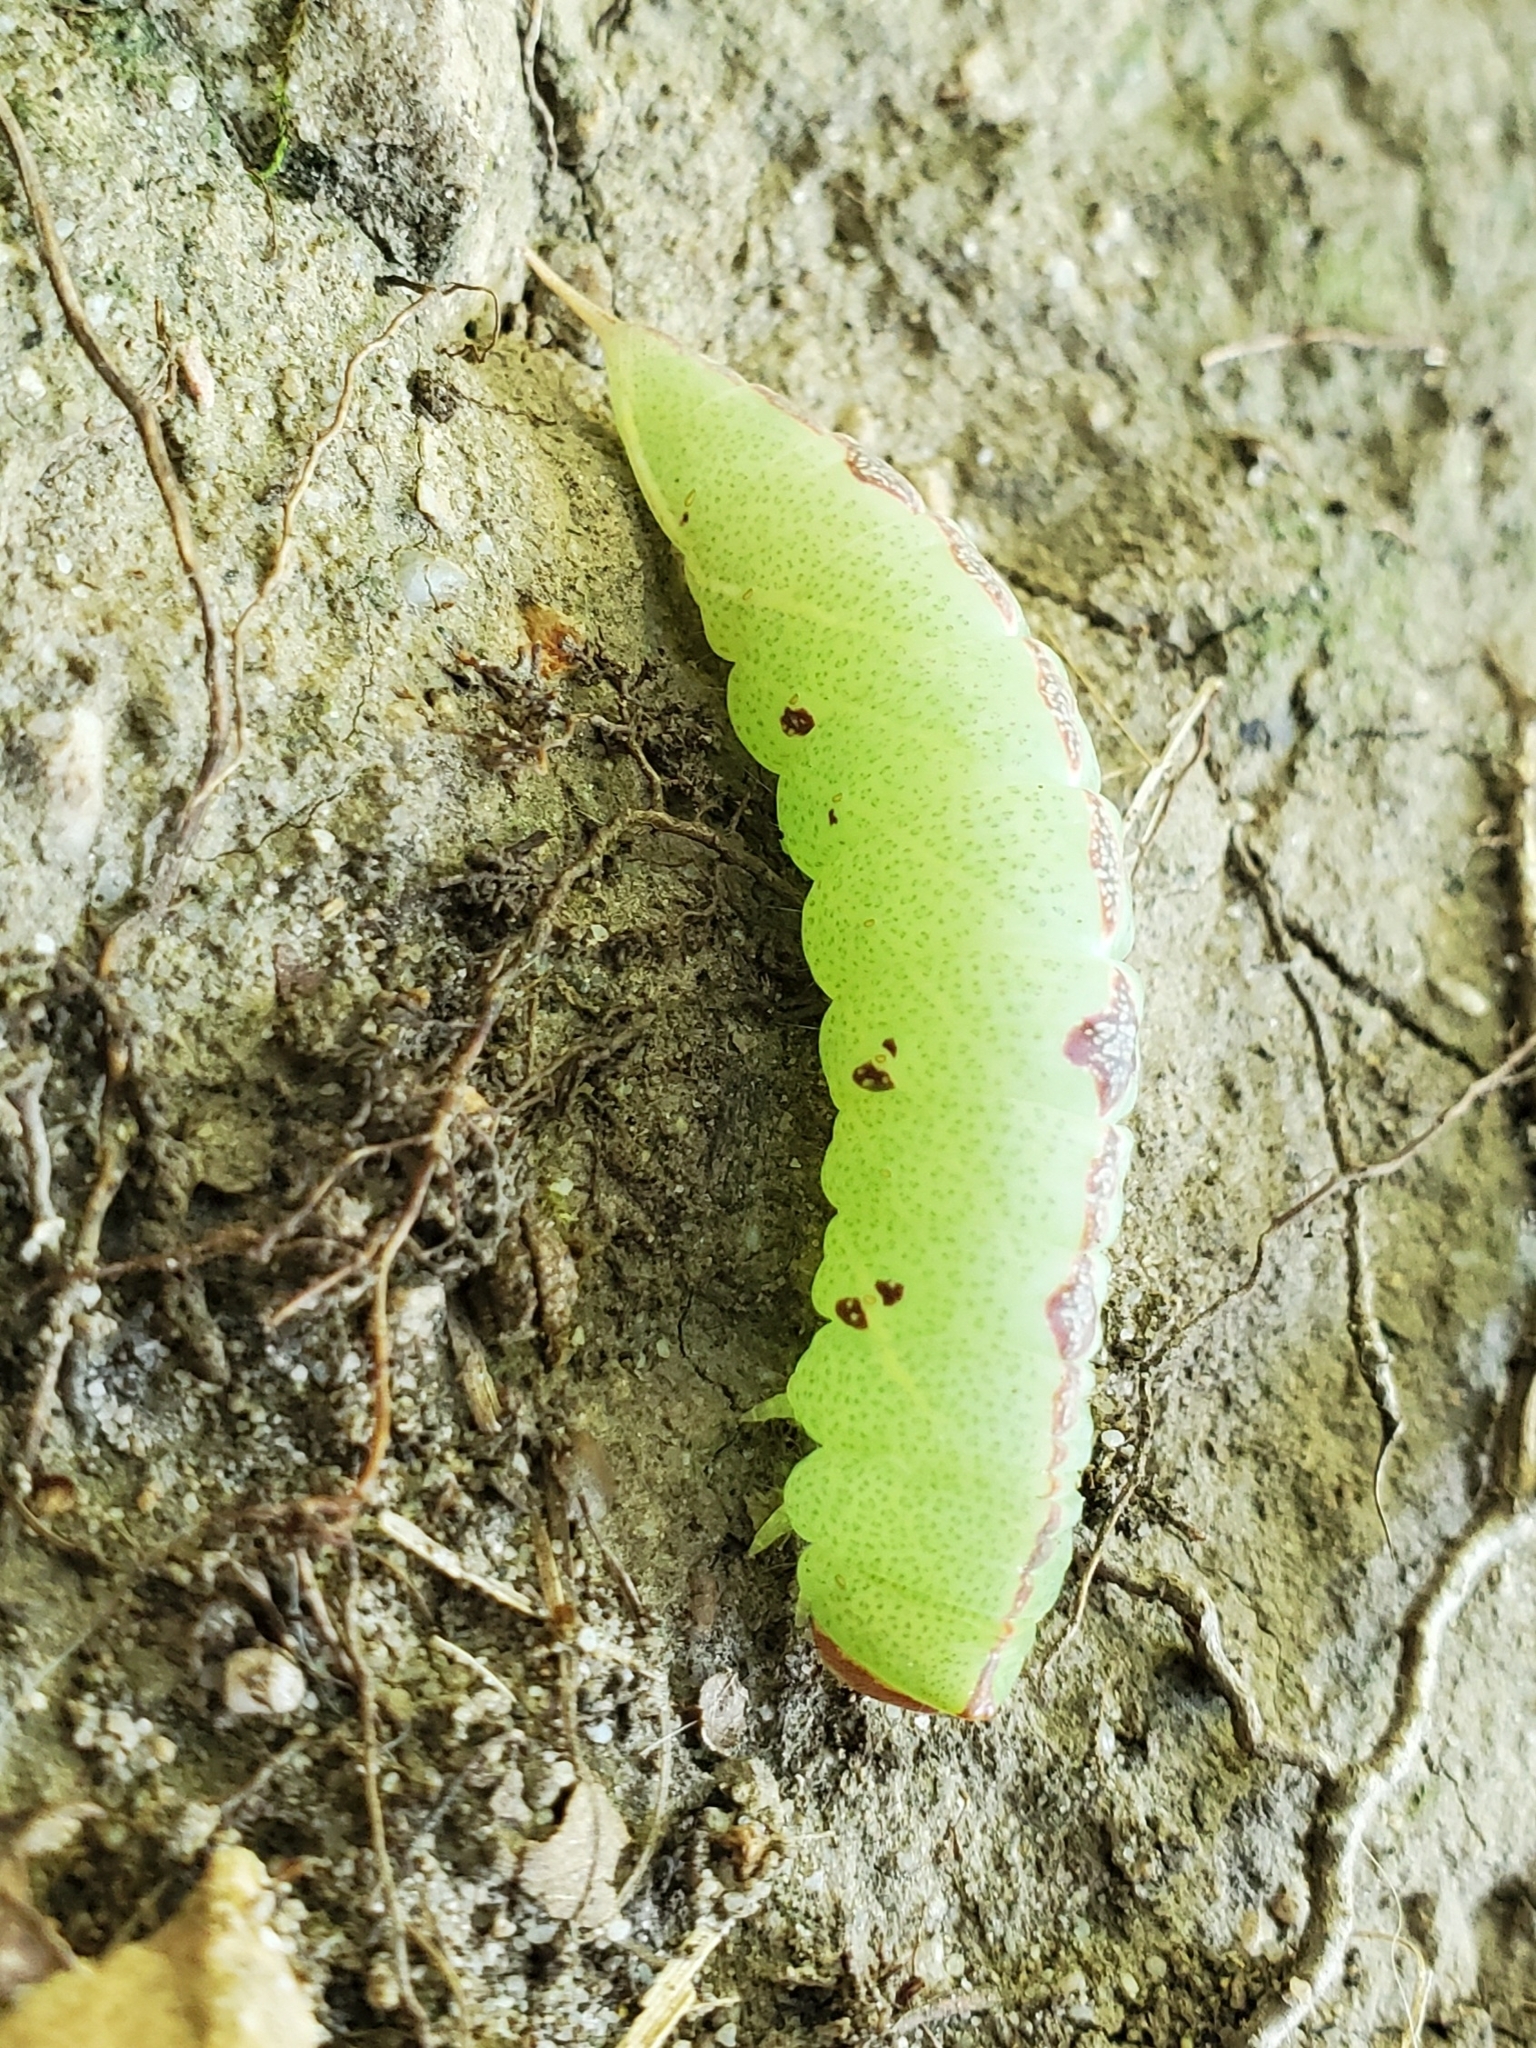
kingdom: Animalia
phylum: Arthropoda
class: Insecta
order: Lepidoptera
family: Notodontidae
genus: Macrurocampa
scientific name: Macrurocampa marthesia
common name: Mottled prominent
